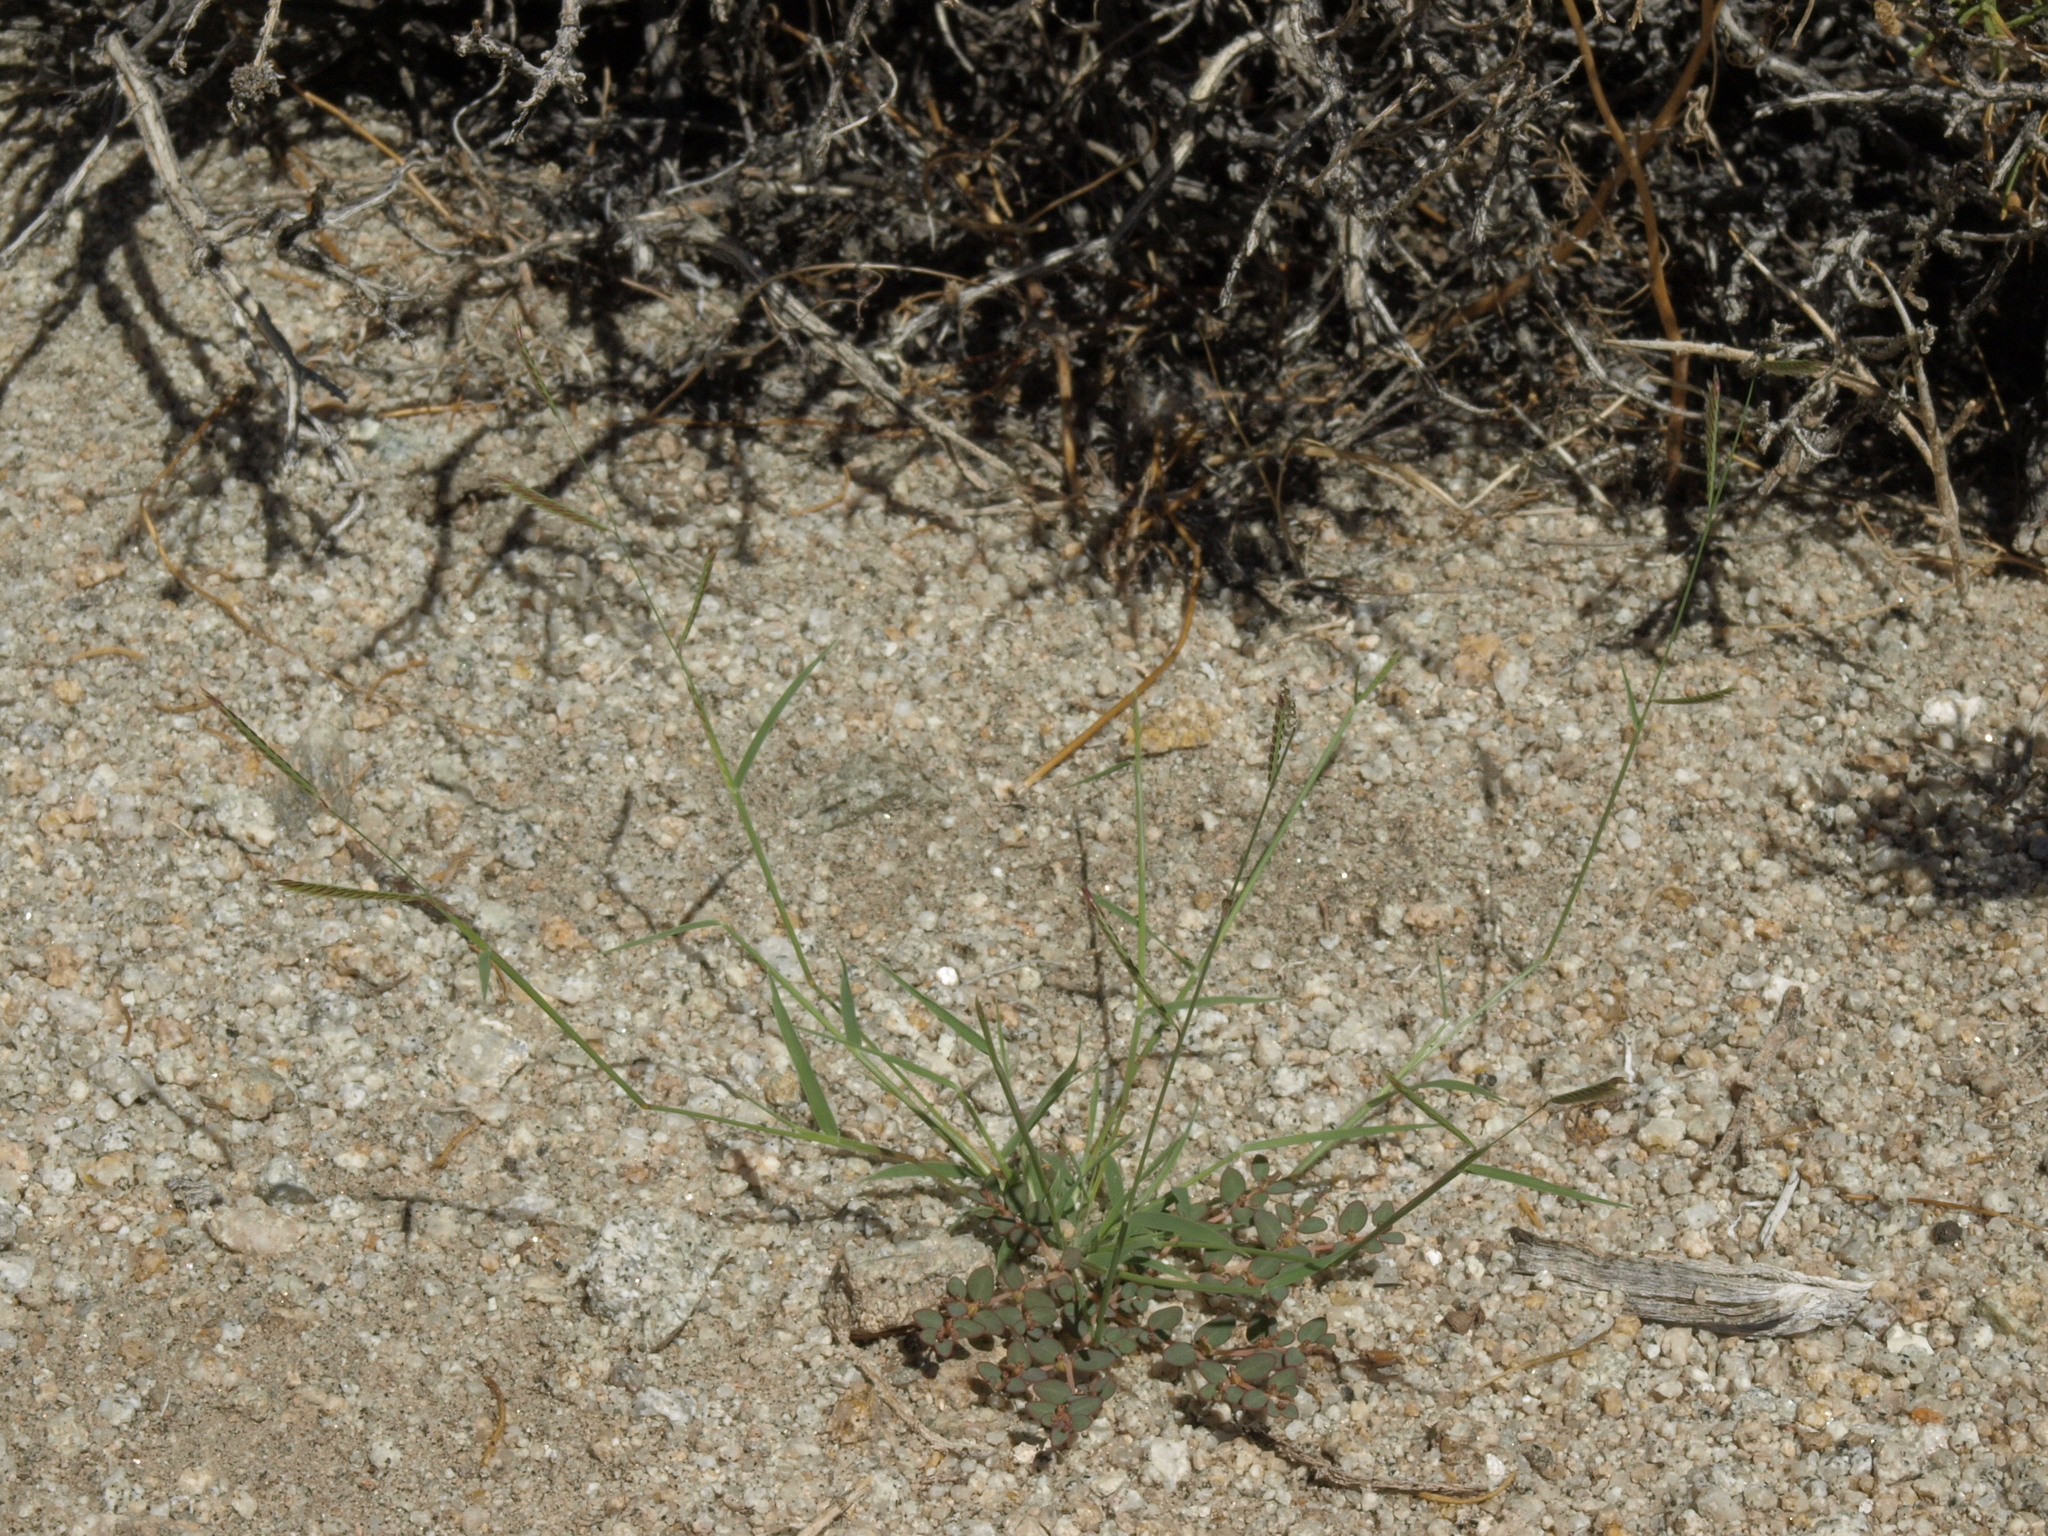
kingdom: Plantae
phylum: Tracheophyta
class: Liliopsida
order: Poales
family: Poaceae
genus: Bouteloua
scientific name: Bouteloua barbata
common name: Six-weeks grama
